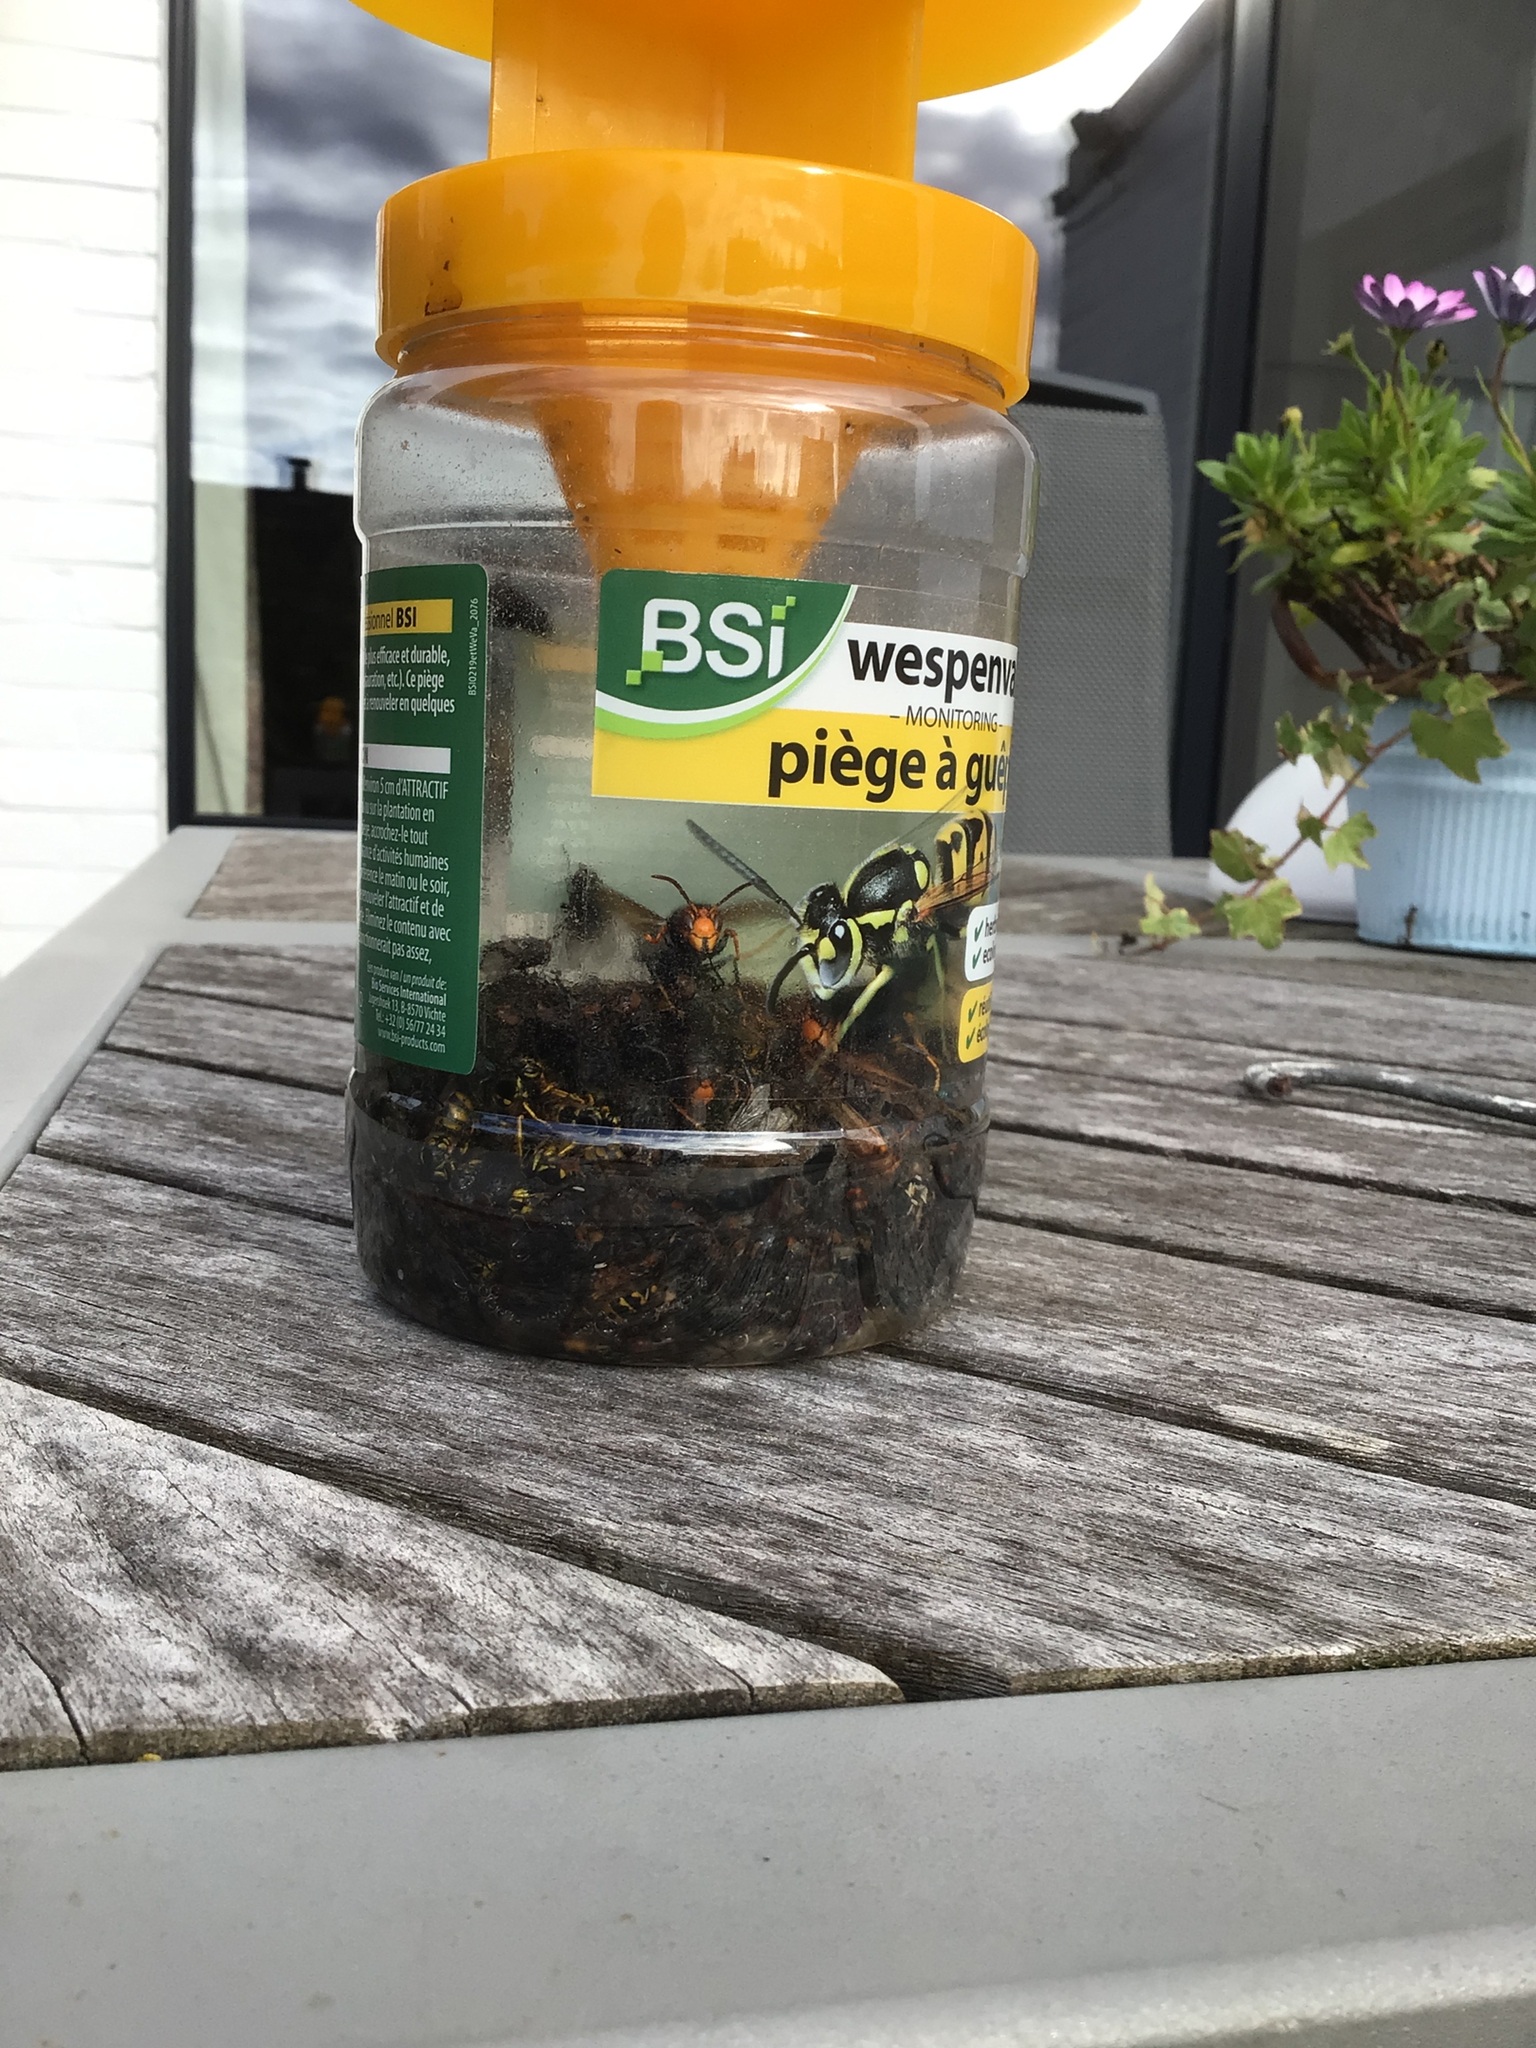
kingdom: Animalia
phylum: Arthropoda
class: Insecta
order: Hymenoptera
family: Vespidae
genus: Vespa
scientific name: Vespa velutina
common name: Asian hornet
